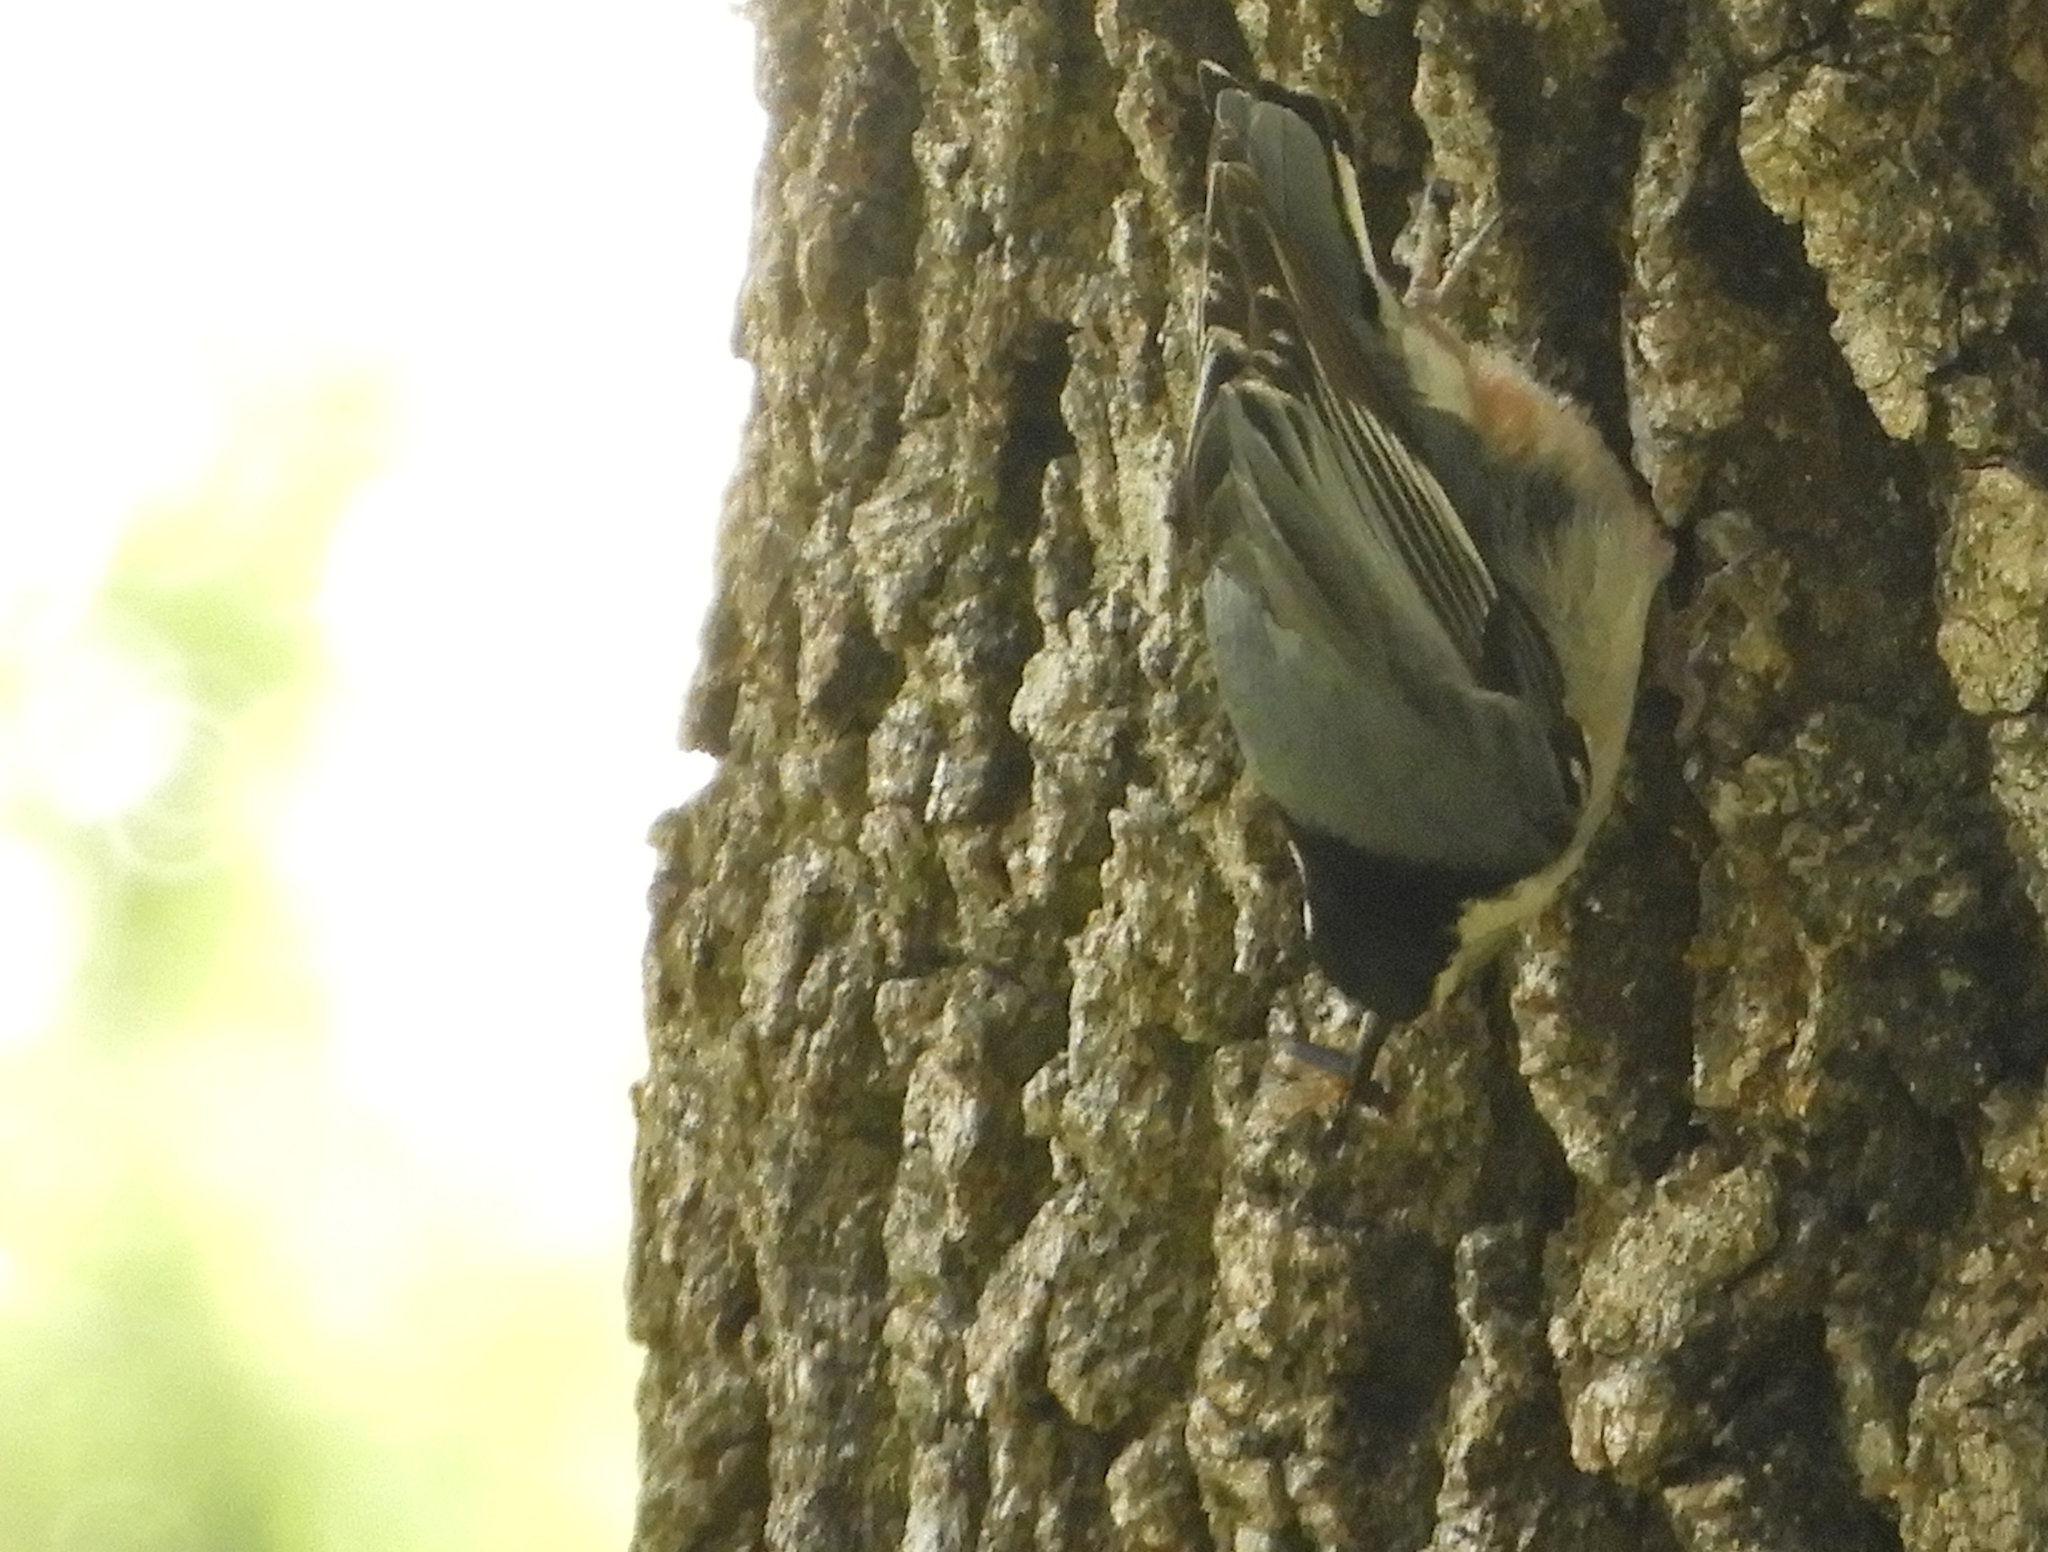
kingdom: Animalia
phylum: Chordata
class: Aves
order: Passeriformes
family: Sittidae
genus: Sitta
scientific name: Sitta carolinensis
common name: White-breasted nuthatch
